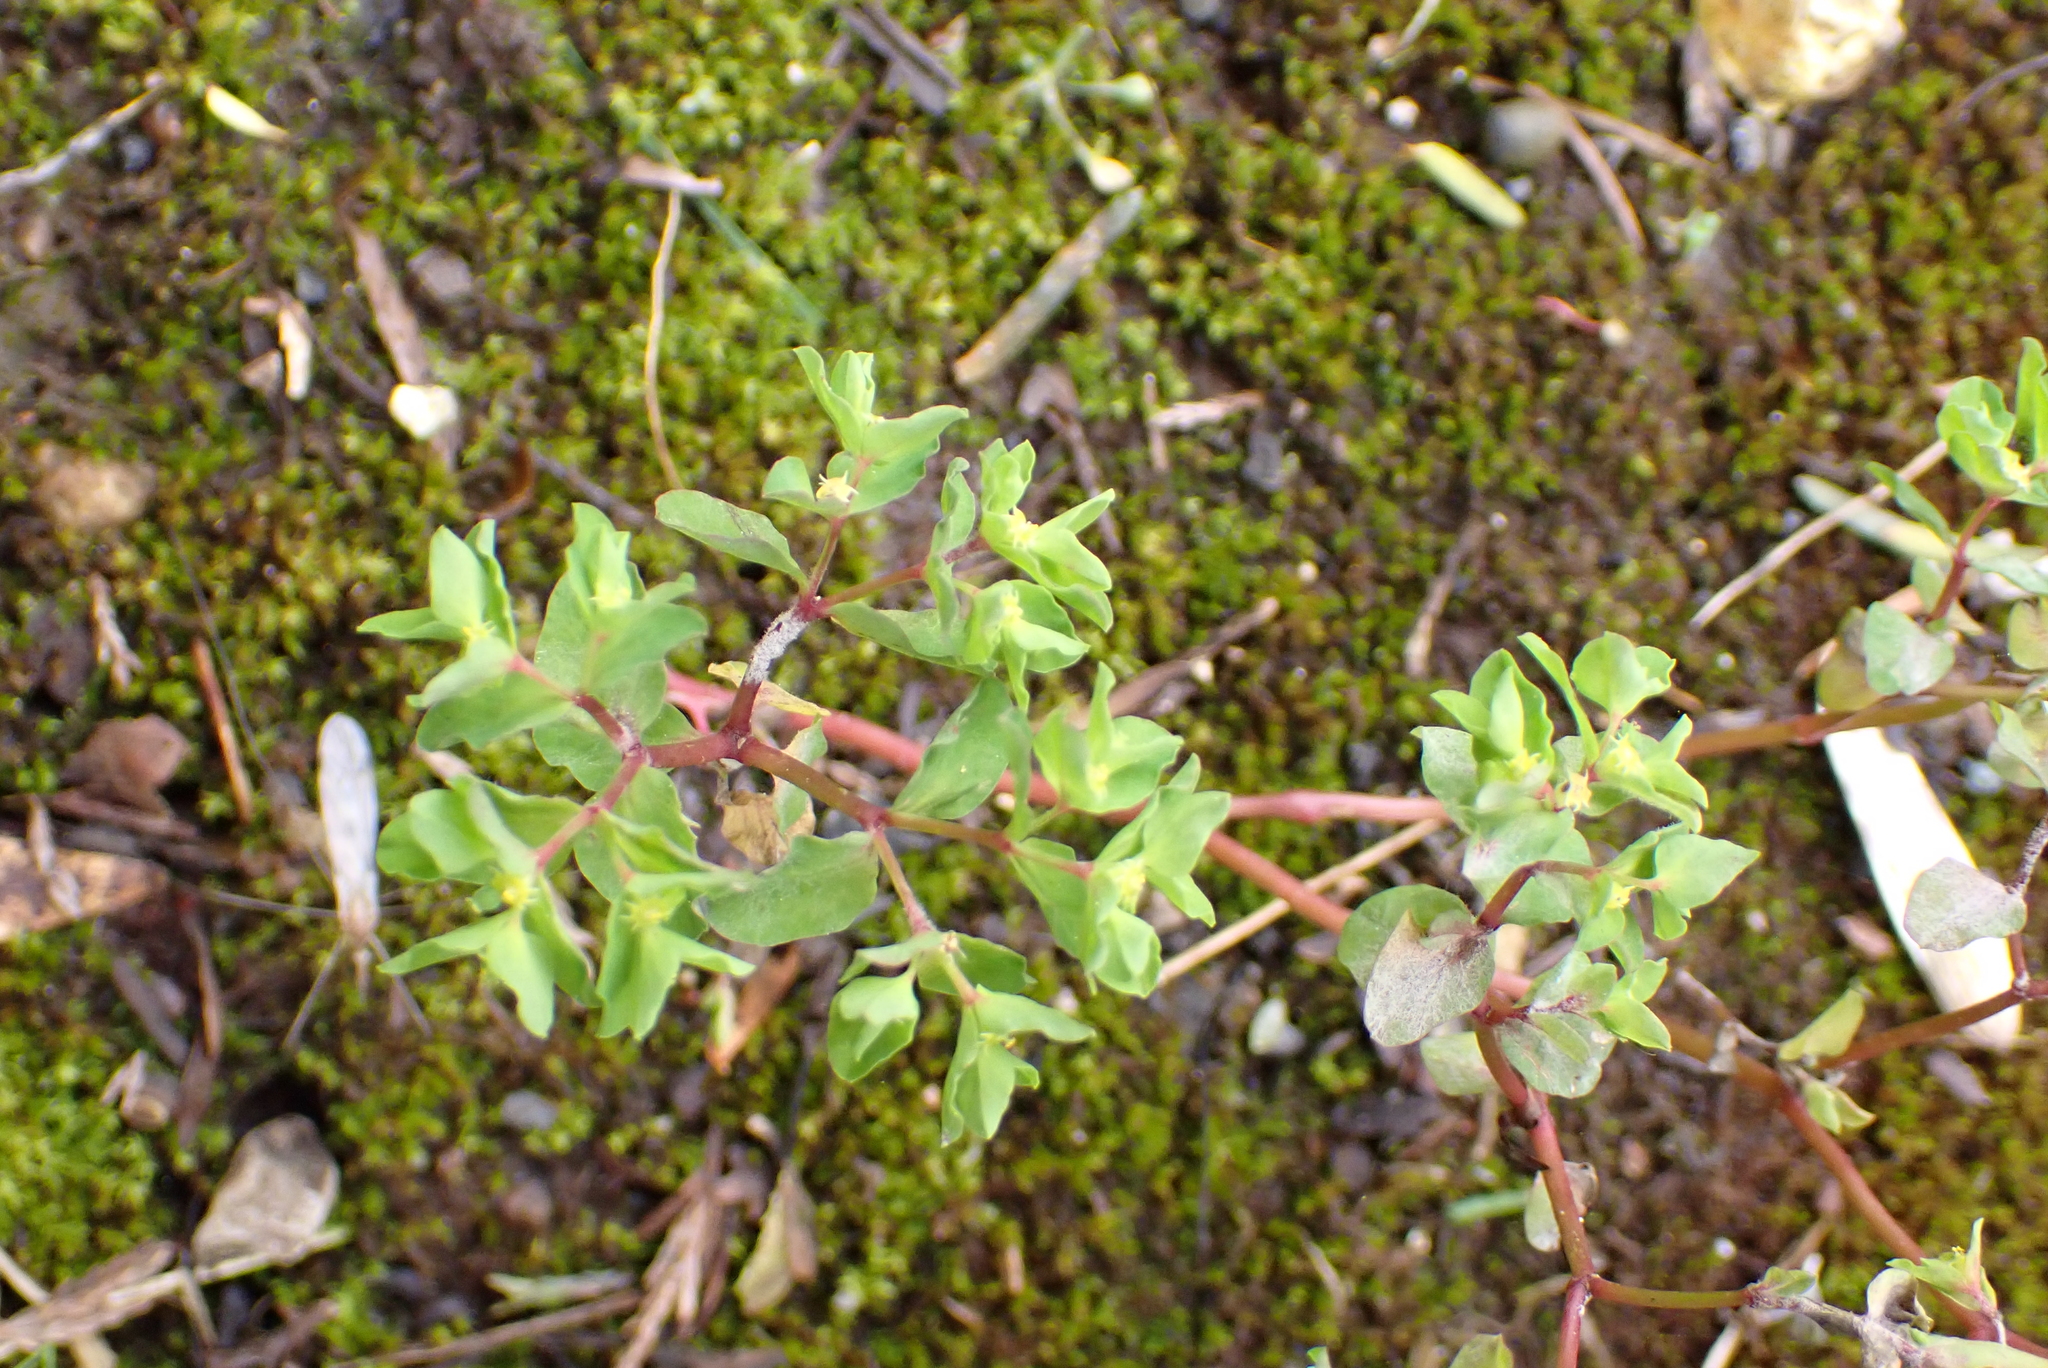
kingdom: Plantae
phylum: Tracheophyta
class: Magnoliopsida
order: Malpighiales
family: Euphorbiaceae
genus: Euphorbia
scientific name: Euphorbia peplus
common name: Petty spurge
